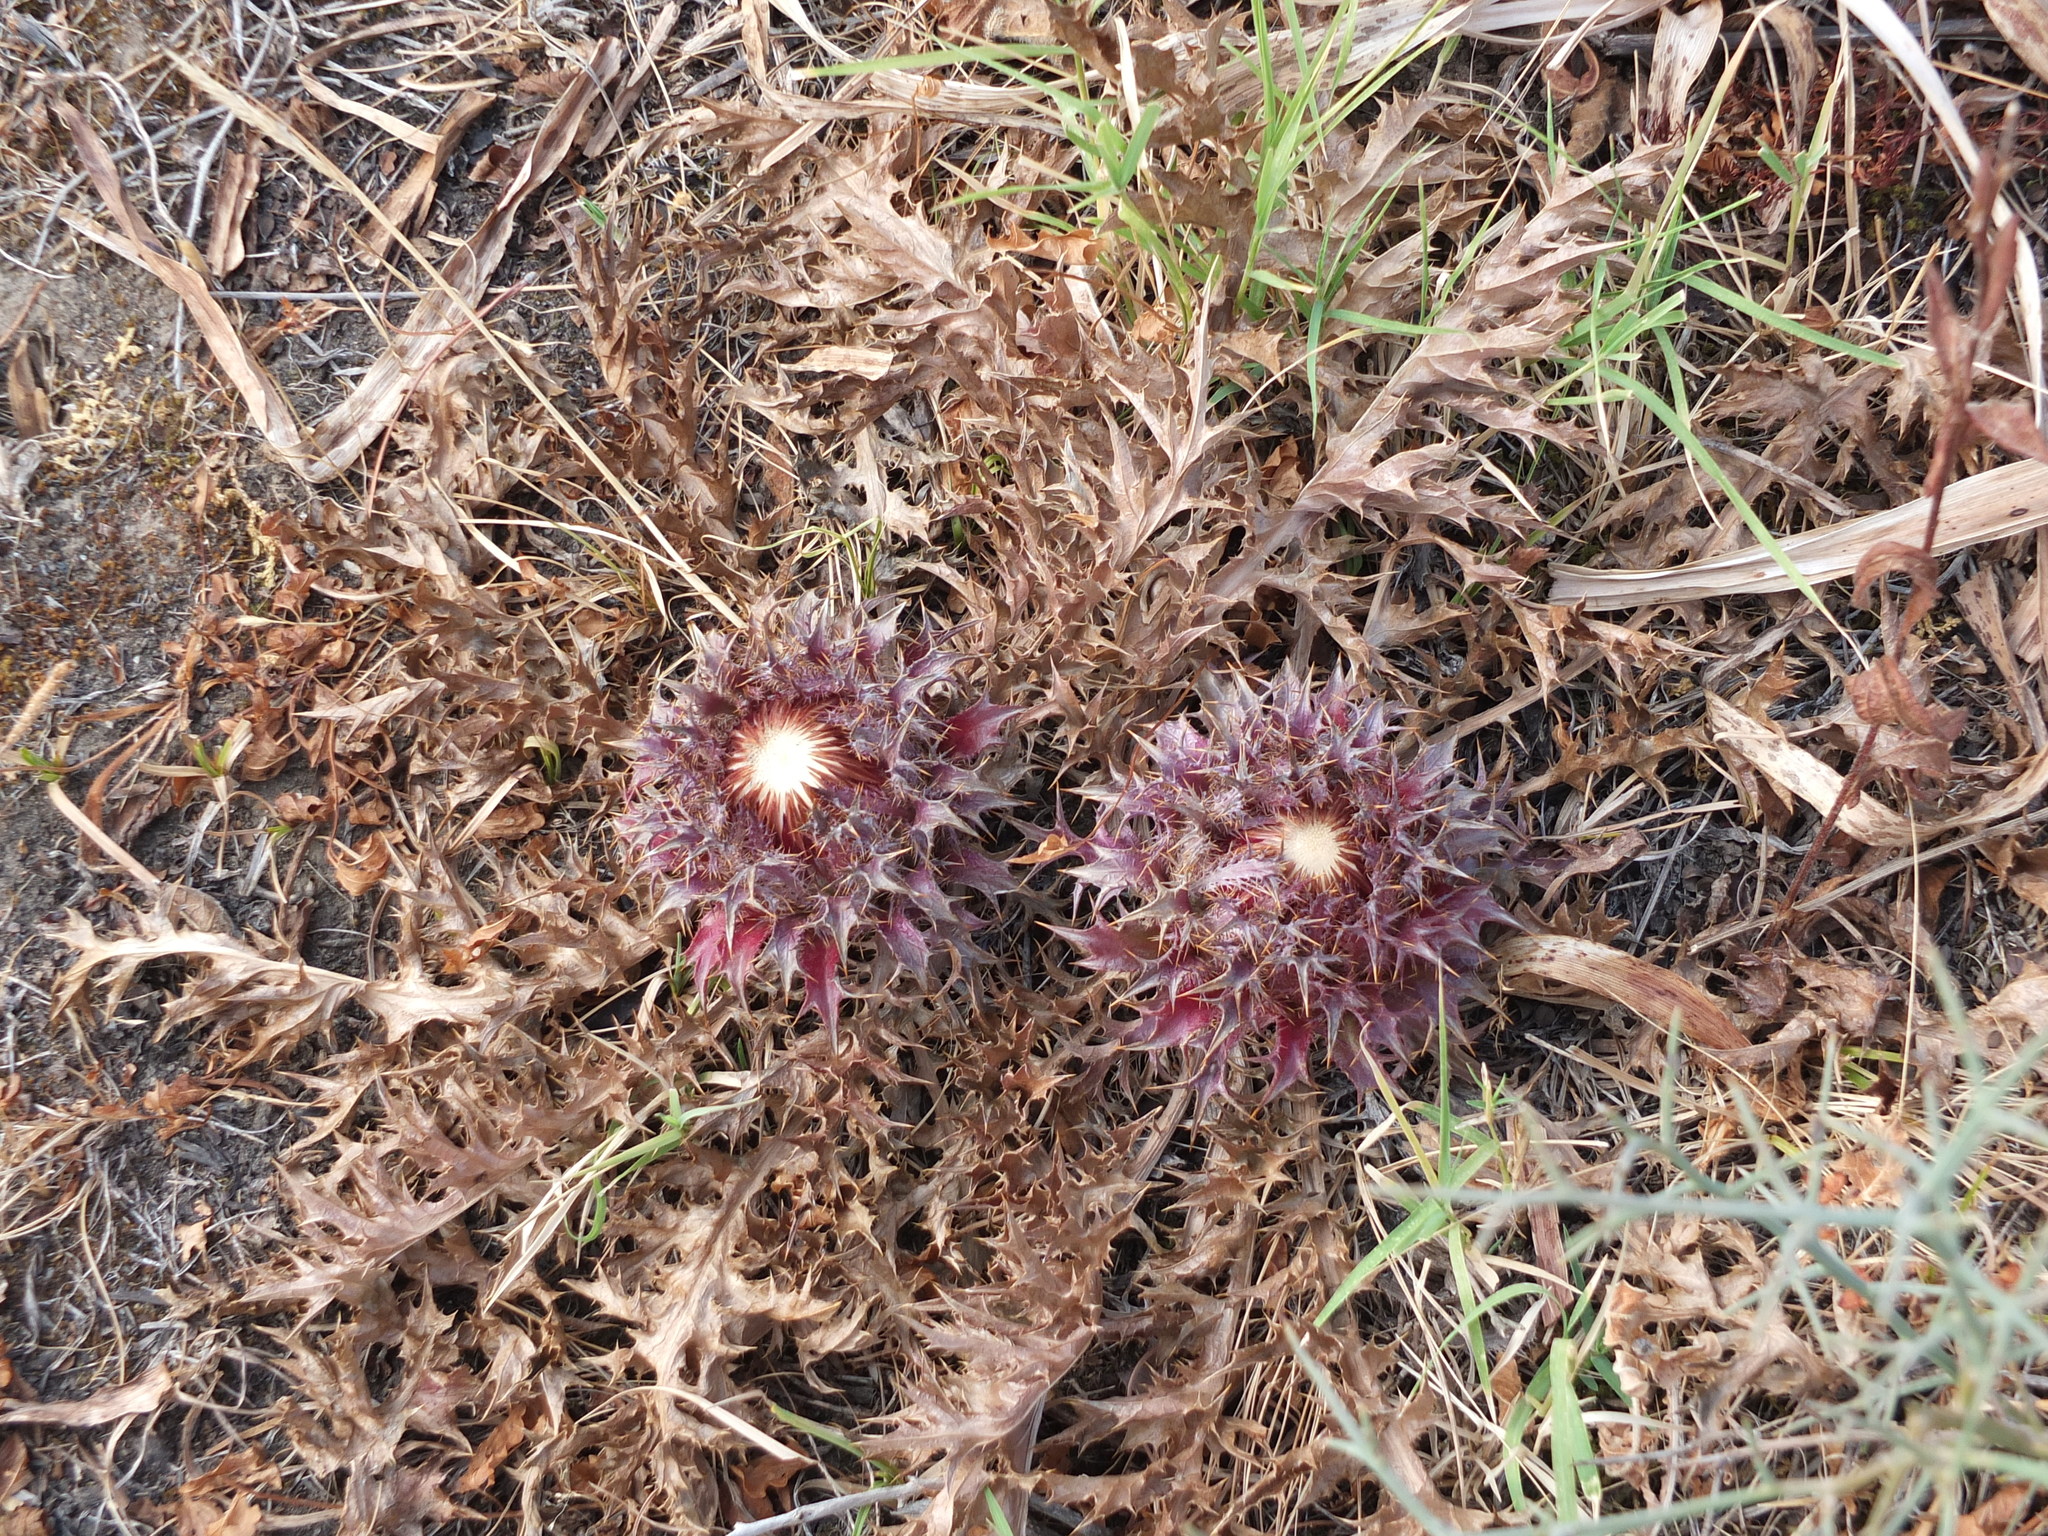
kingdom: Plantae
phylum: Tracheophyta
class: Magnoliopsida
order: Asterales
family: Asteraceae
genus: Chamaeleon
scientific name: Chamaeleon gummifer
